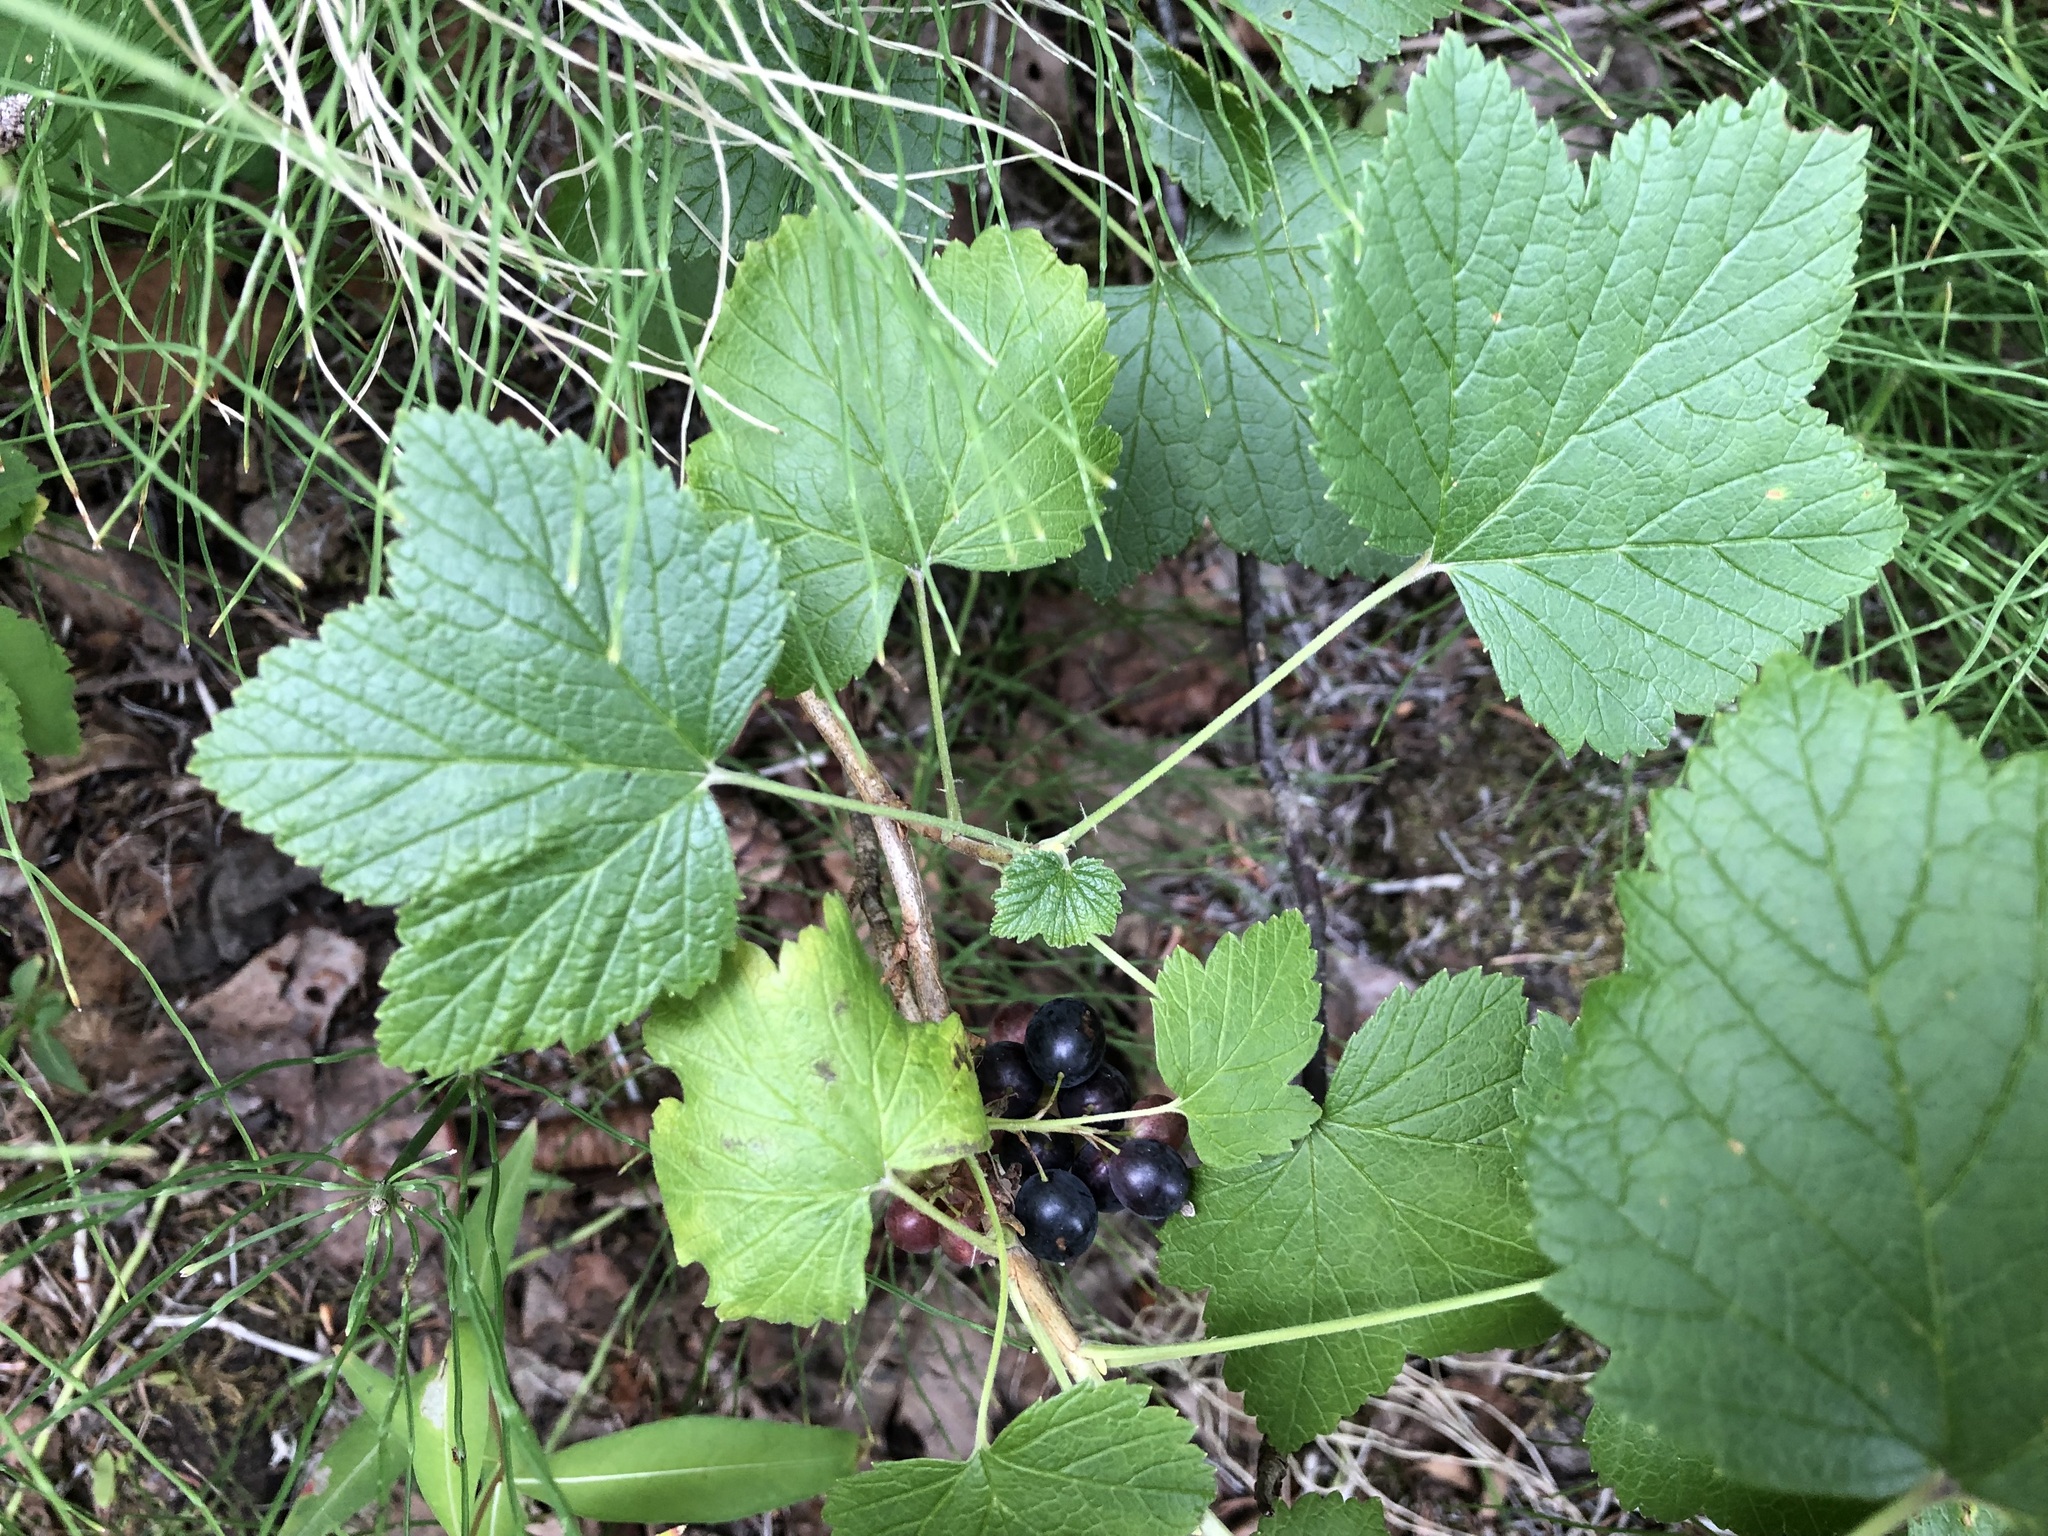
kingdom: Plantae
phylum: Tracheophyta
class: Magnoliopsida
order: Saxifragales
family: Grossulariaceae
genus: Ribes
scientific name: Ribes hudsonianum
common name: Northern black currant
